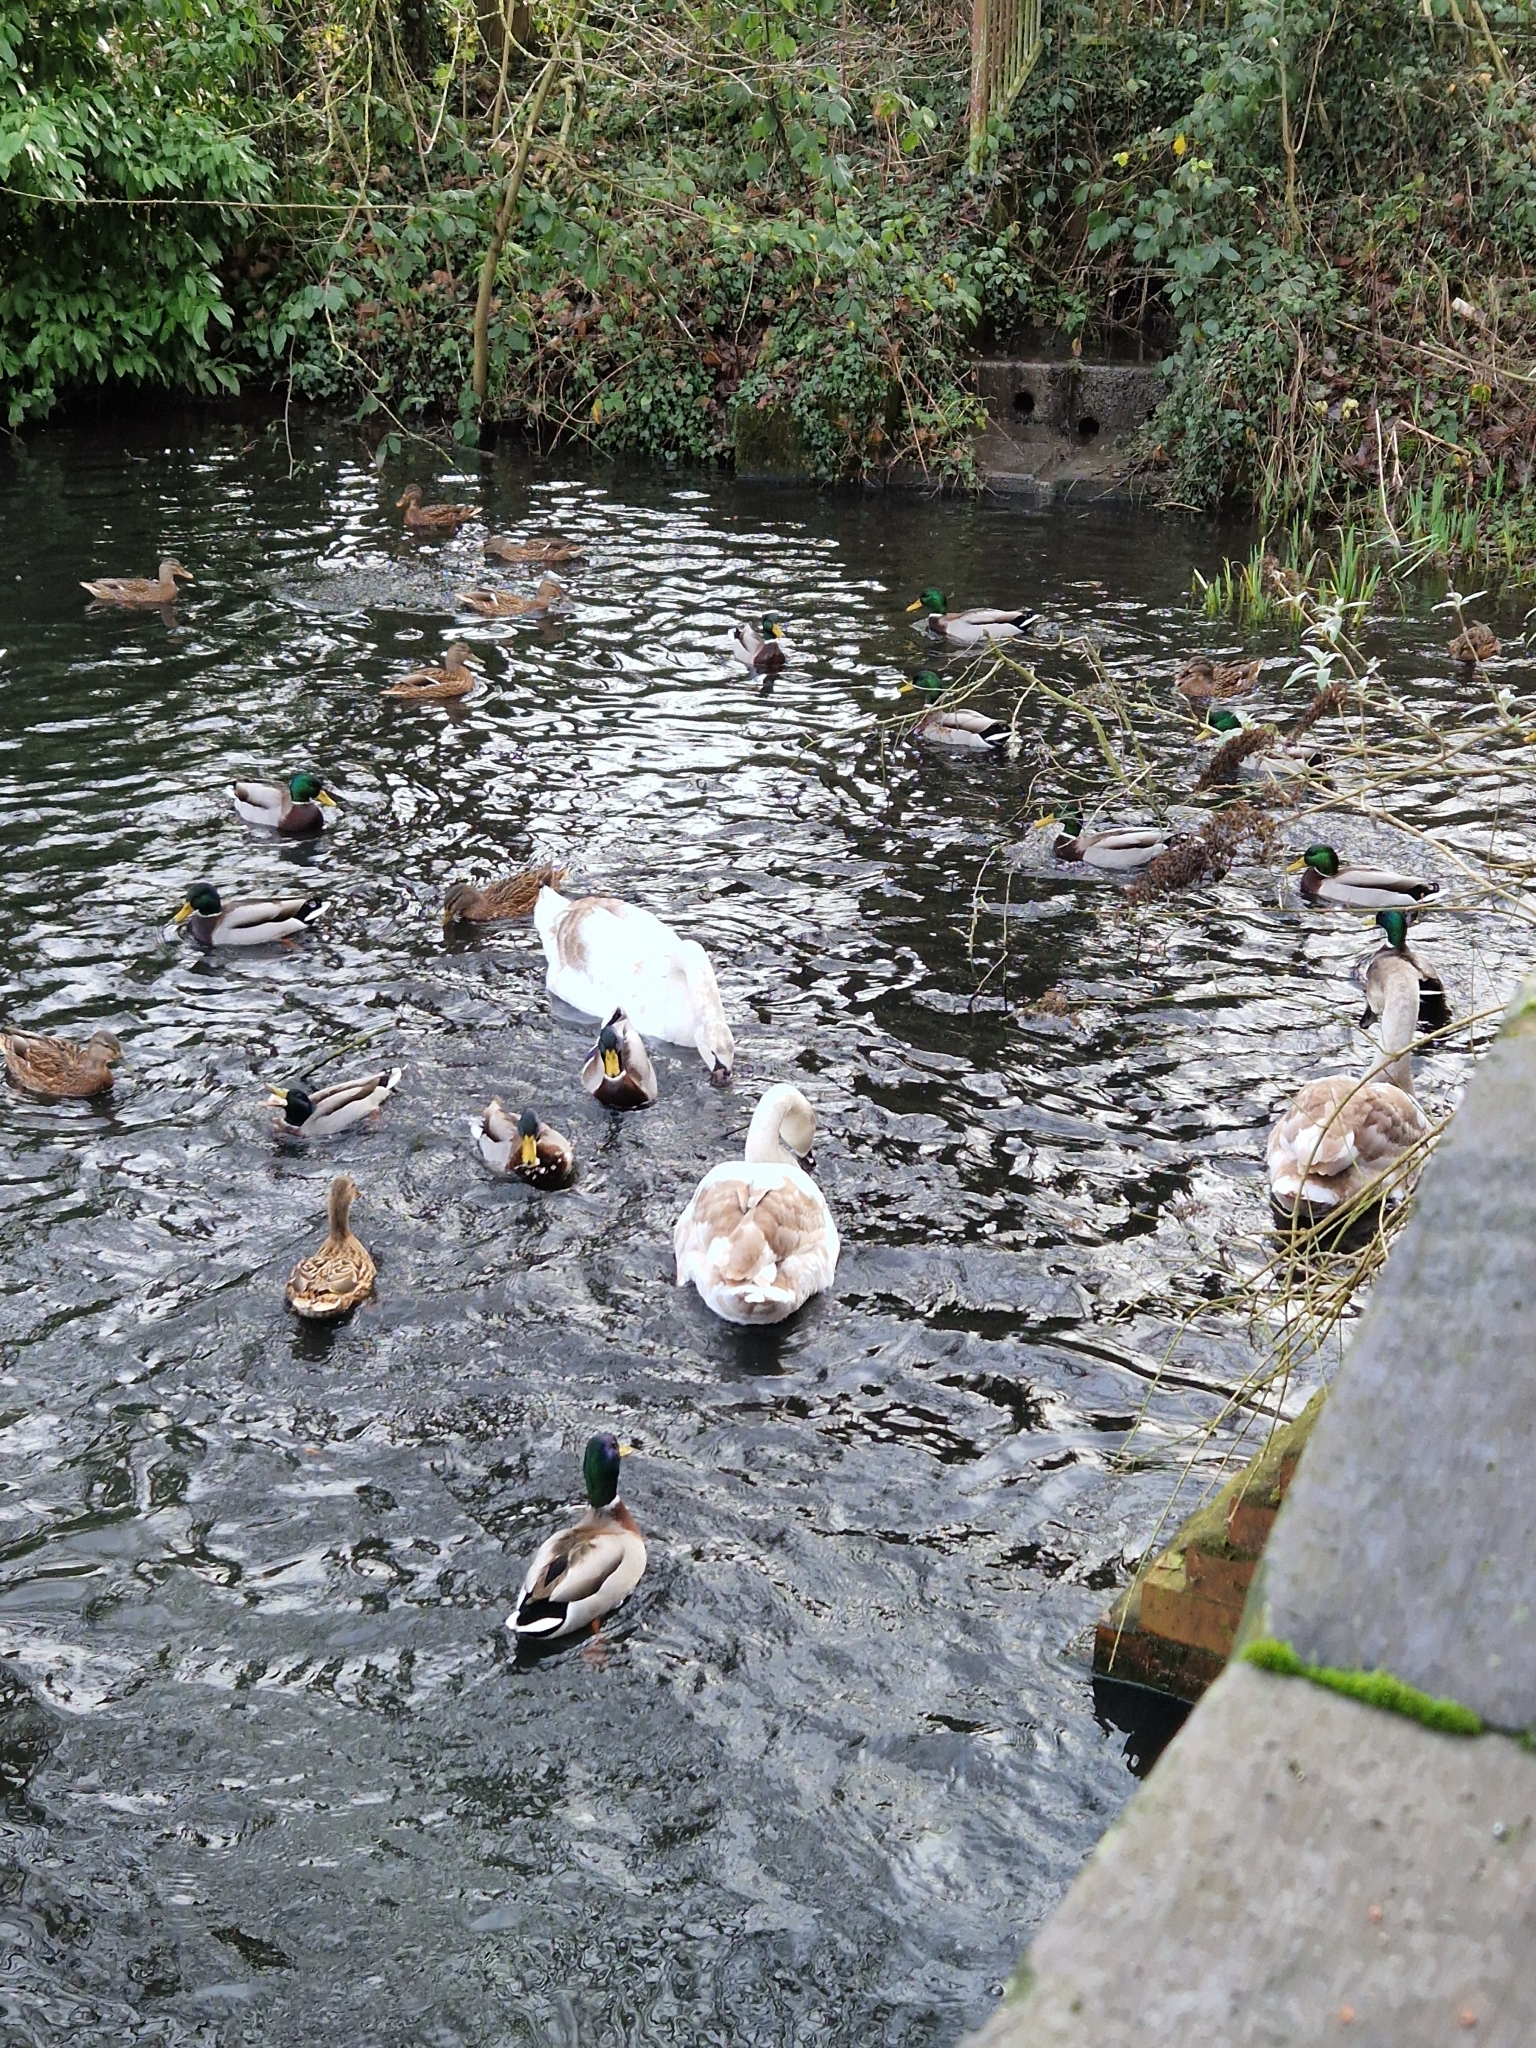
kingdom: Animalia
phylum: Chordata
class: Aves
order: Anseriformes
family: Anatidae
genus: Cygnus
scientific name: Cygnus olor
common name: Mute swan
